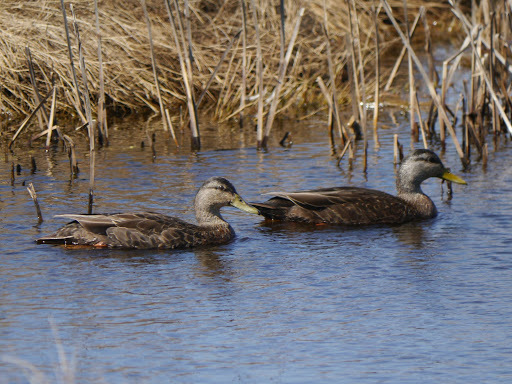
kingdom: Animalia
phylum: Chordata
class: Aves
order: Anseriformes
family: Anatidae
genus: Anas
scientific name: Anas rubripes
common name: American black duck
